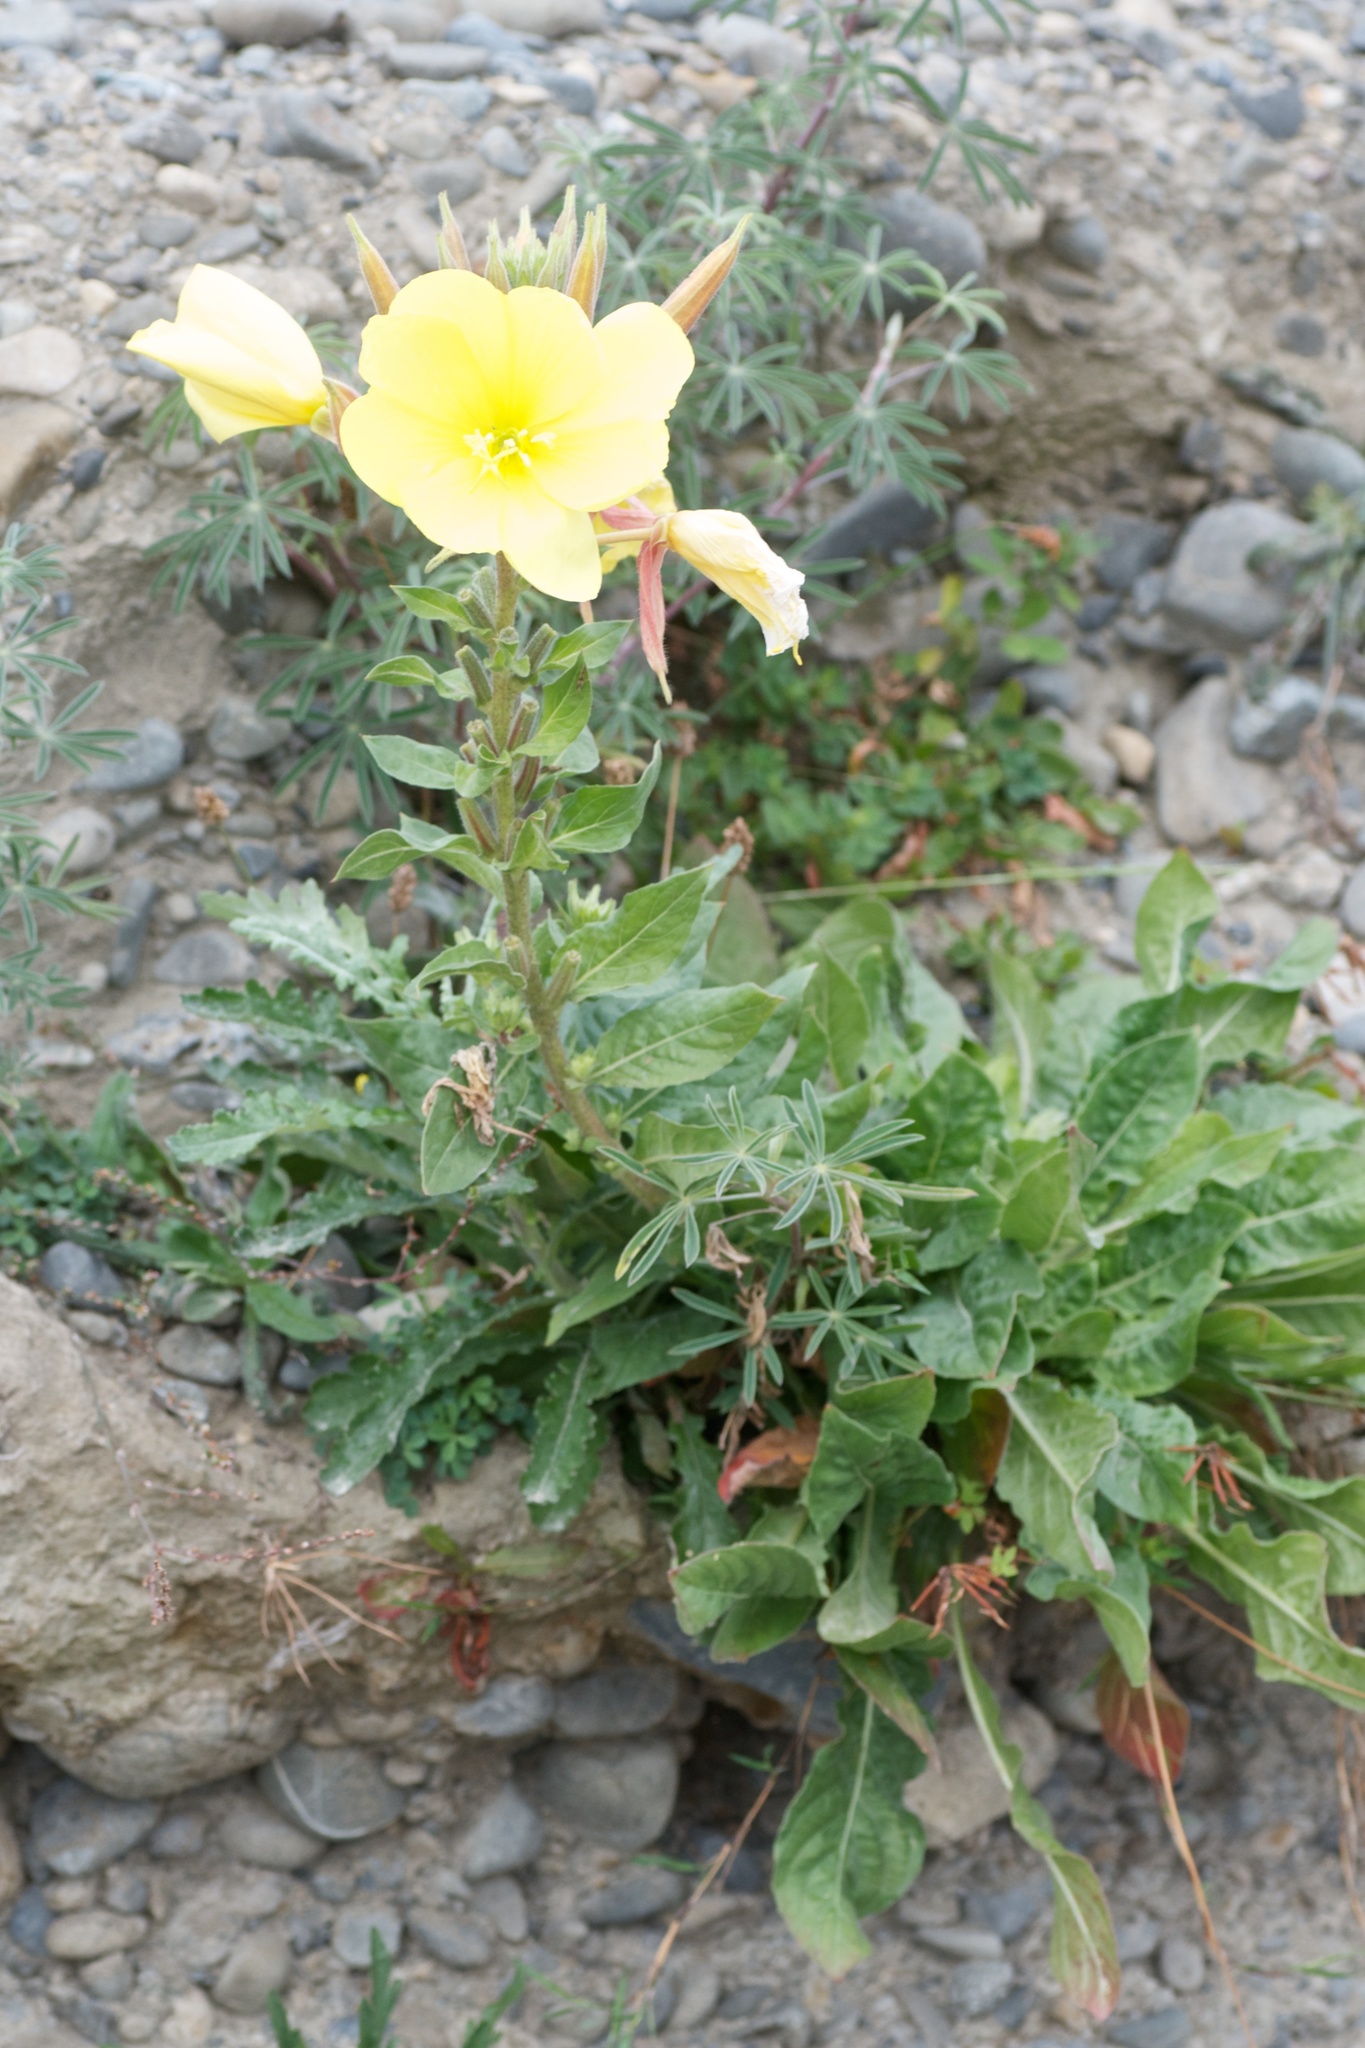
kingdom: Plantae
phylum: Tracheophyta
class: Magnoliopsida
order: Myrtales
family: Onagraceae
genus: Oenothera
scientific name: Oenothera stricta
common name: Fragrant evening-primrose
